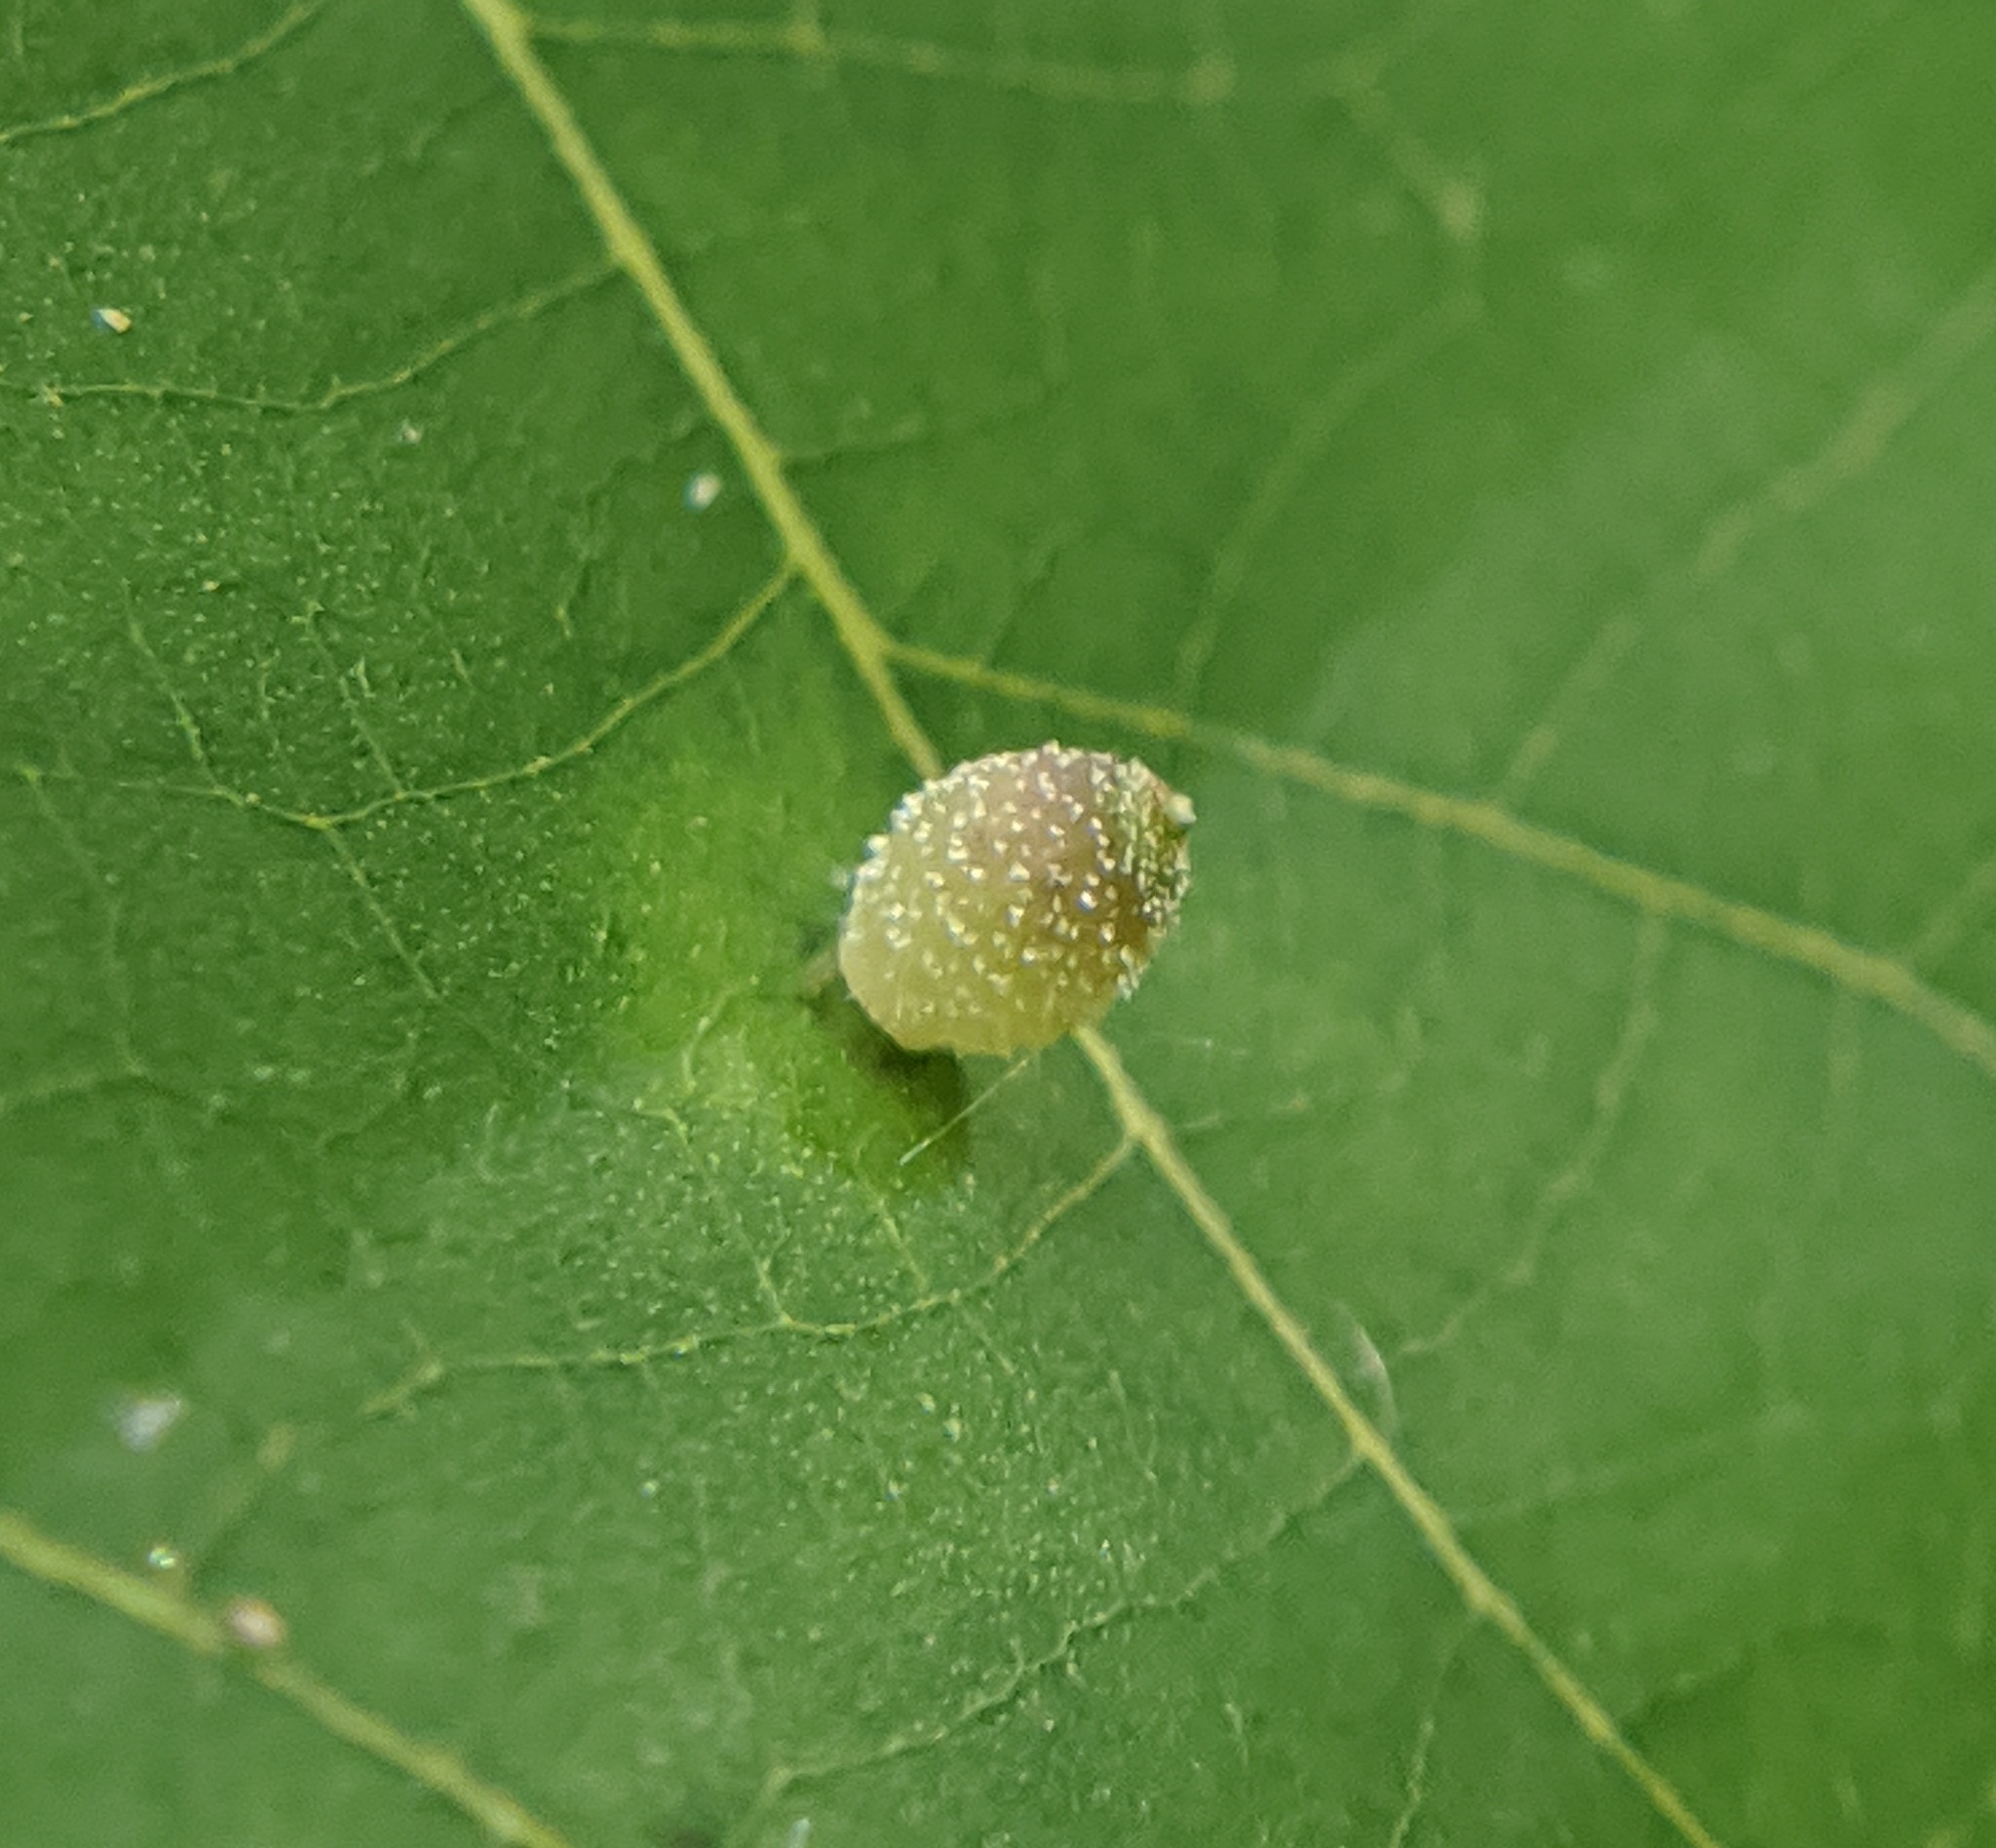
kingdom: Animalia
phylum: Arthropoda
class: Insecta
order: Diptera
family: Cecidomyiidae
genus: Caryomyia
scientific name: Caryomyia viscidolium
